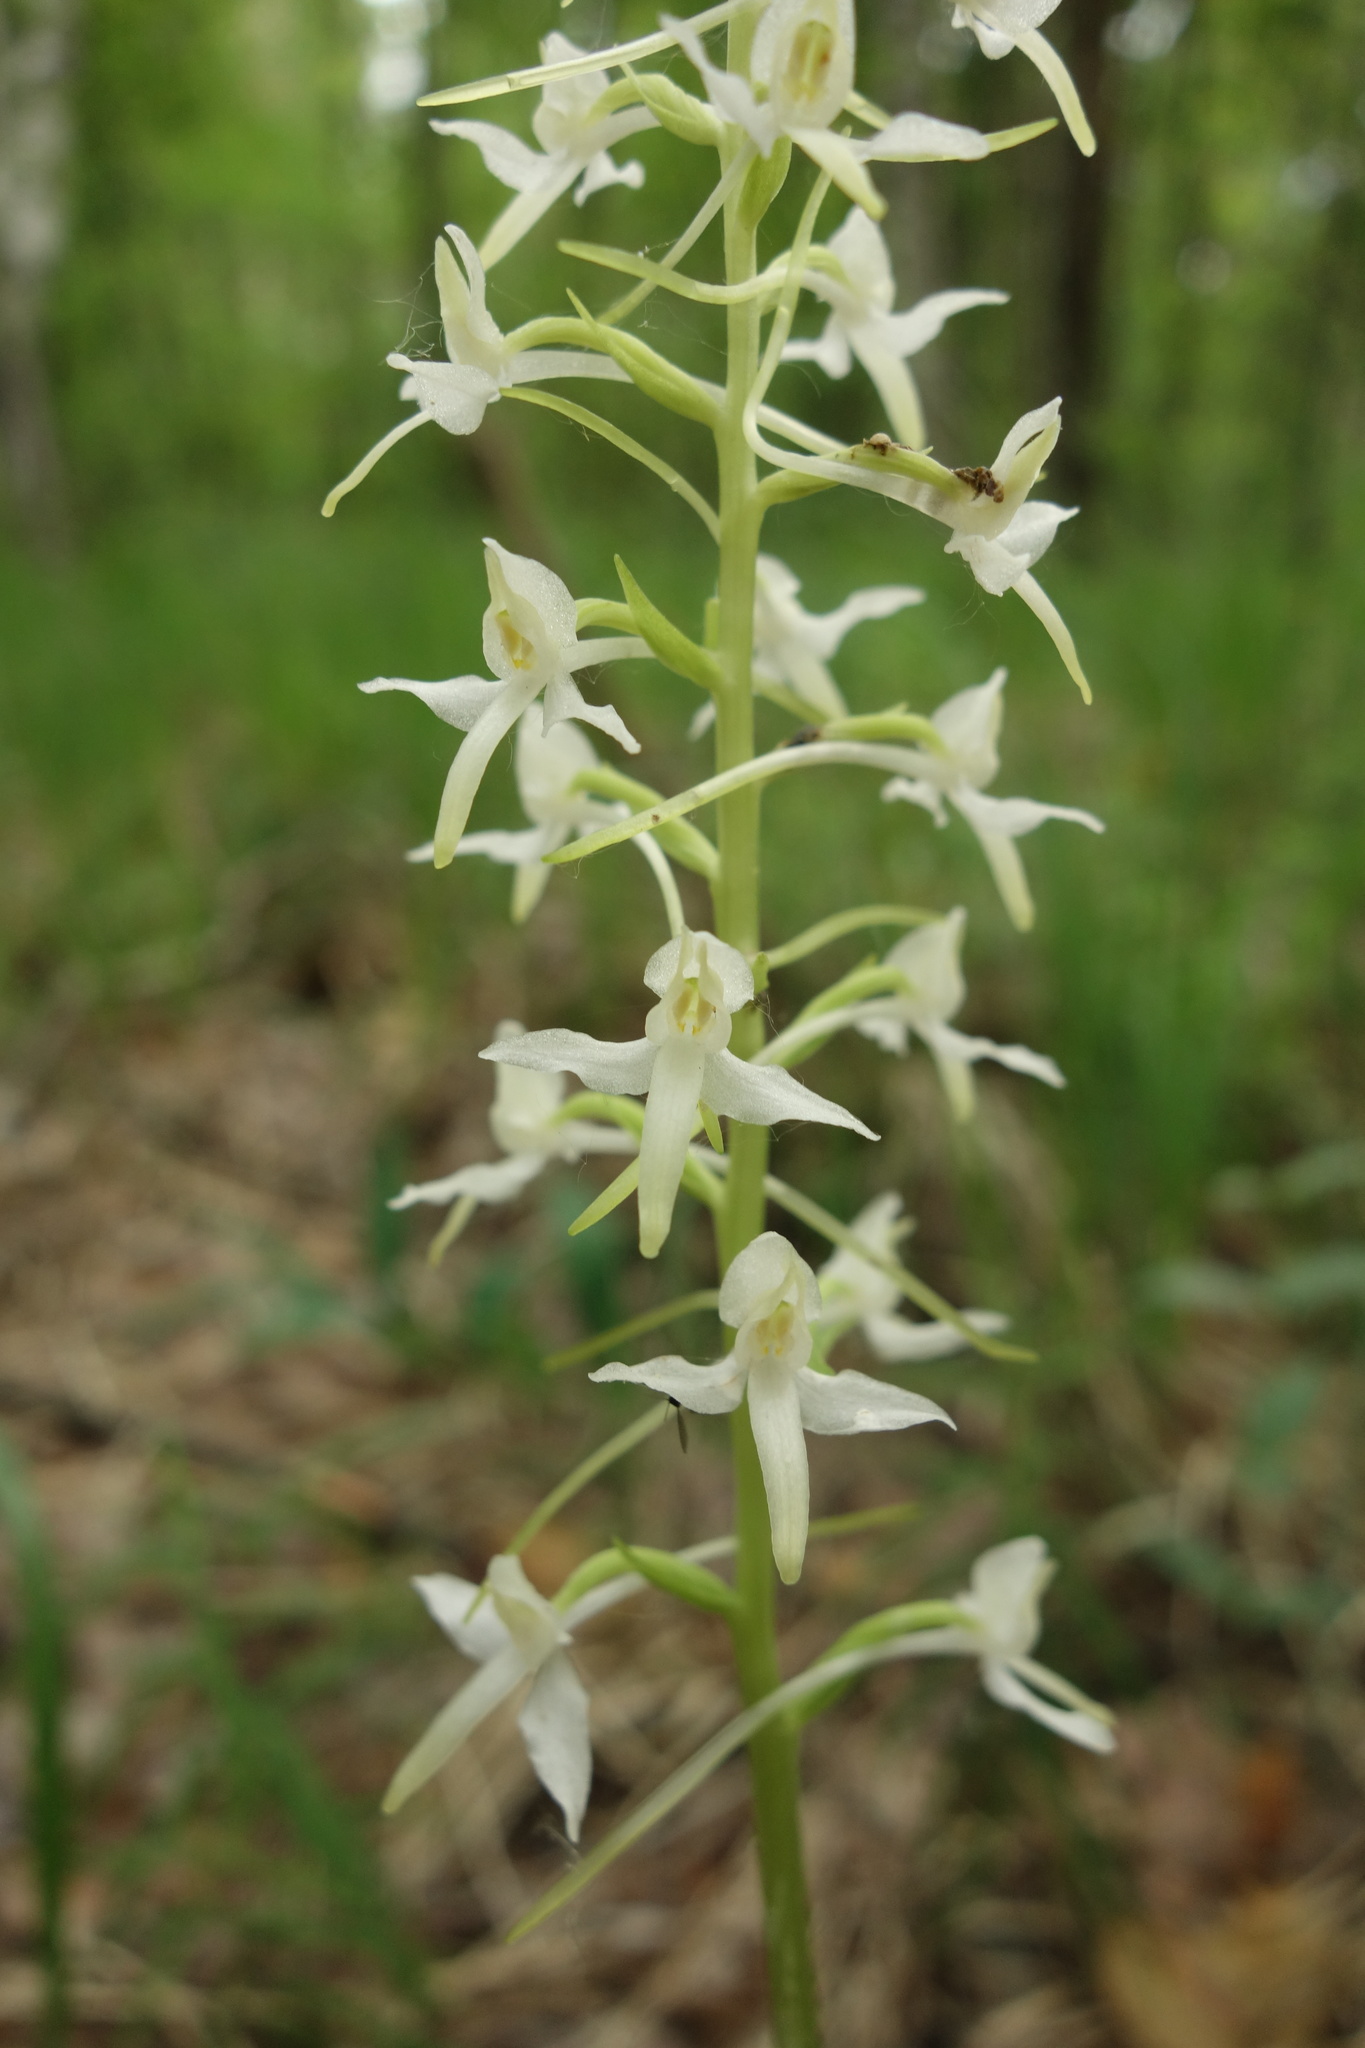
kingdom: Plantae
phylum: Tracheophyta
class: Liliopsida
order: Asparagales
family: Orchidaceae
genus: Platanthera
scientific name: Platanthera bifolia
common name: Lesser butterfly-orchid
